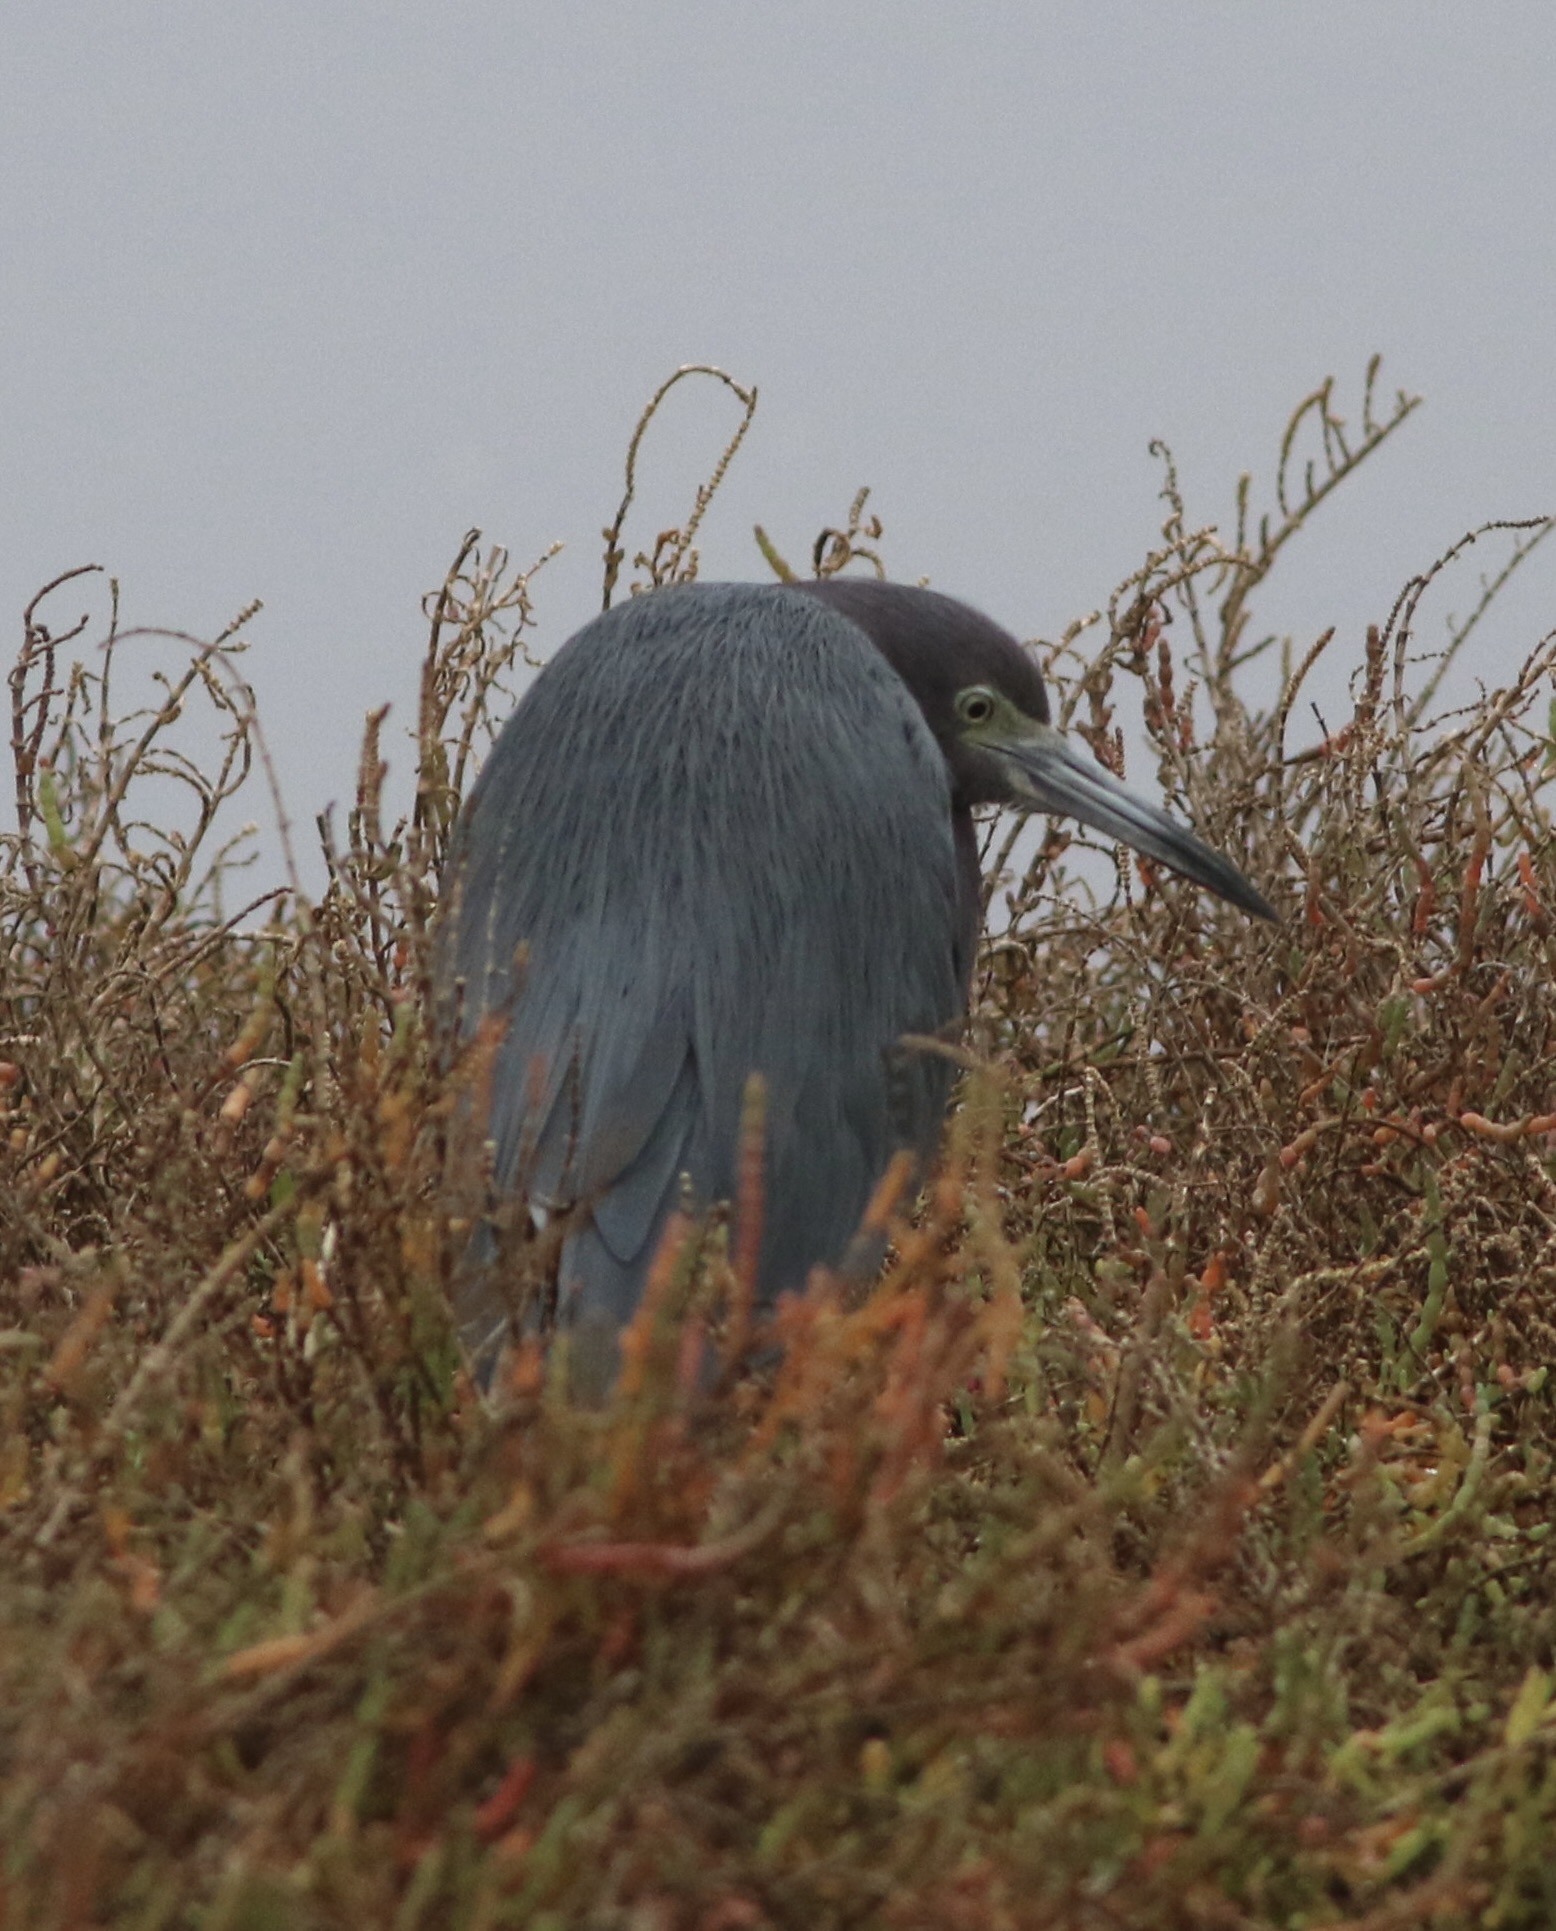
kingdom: Animalia
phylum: Chordata
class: Aves
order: Pelecaniformes
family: Ardeidae
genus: Egretta
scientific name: Egretta caerulea
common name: Little blue heron
